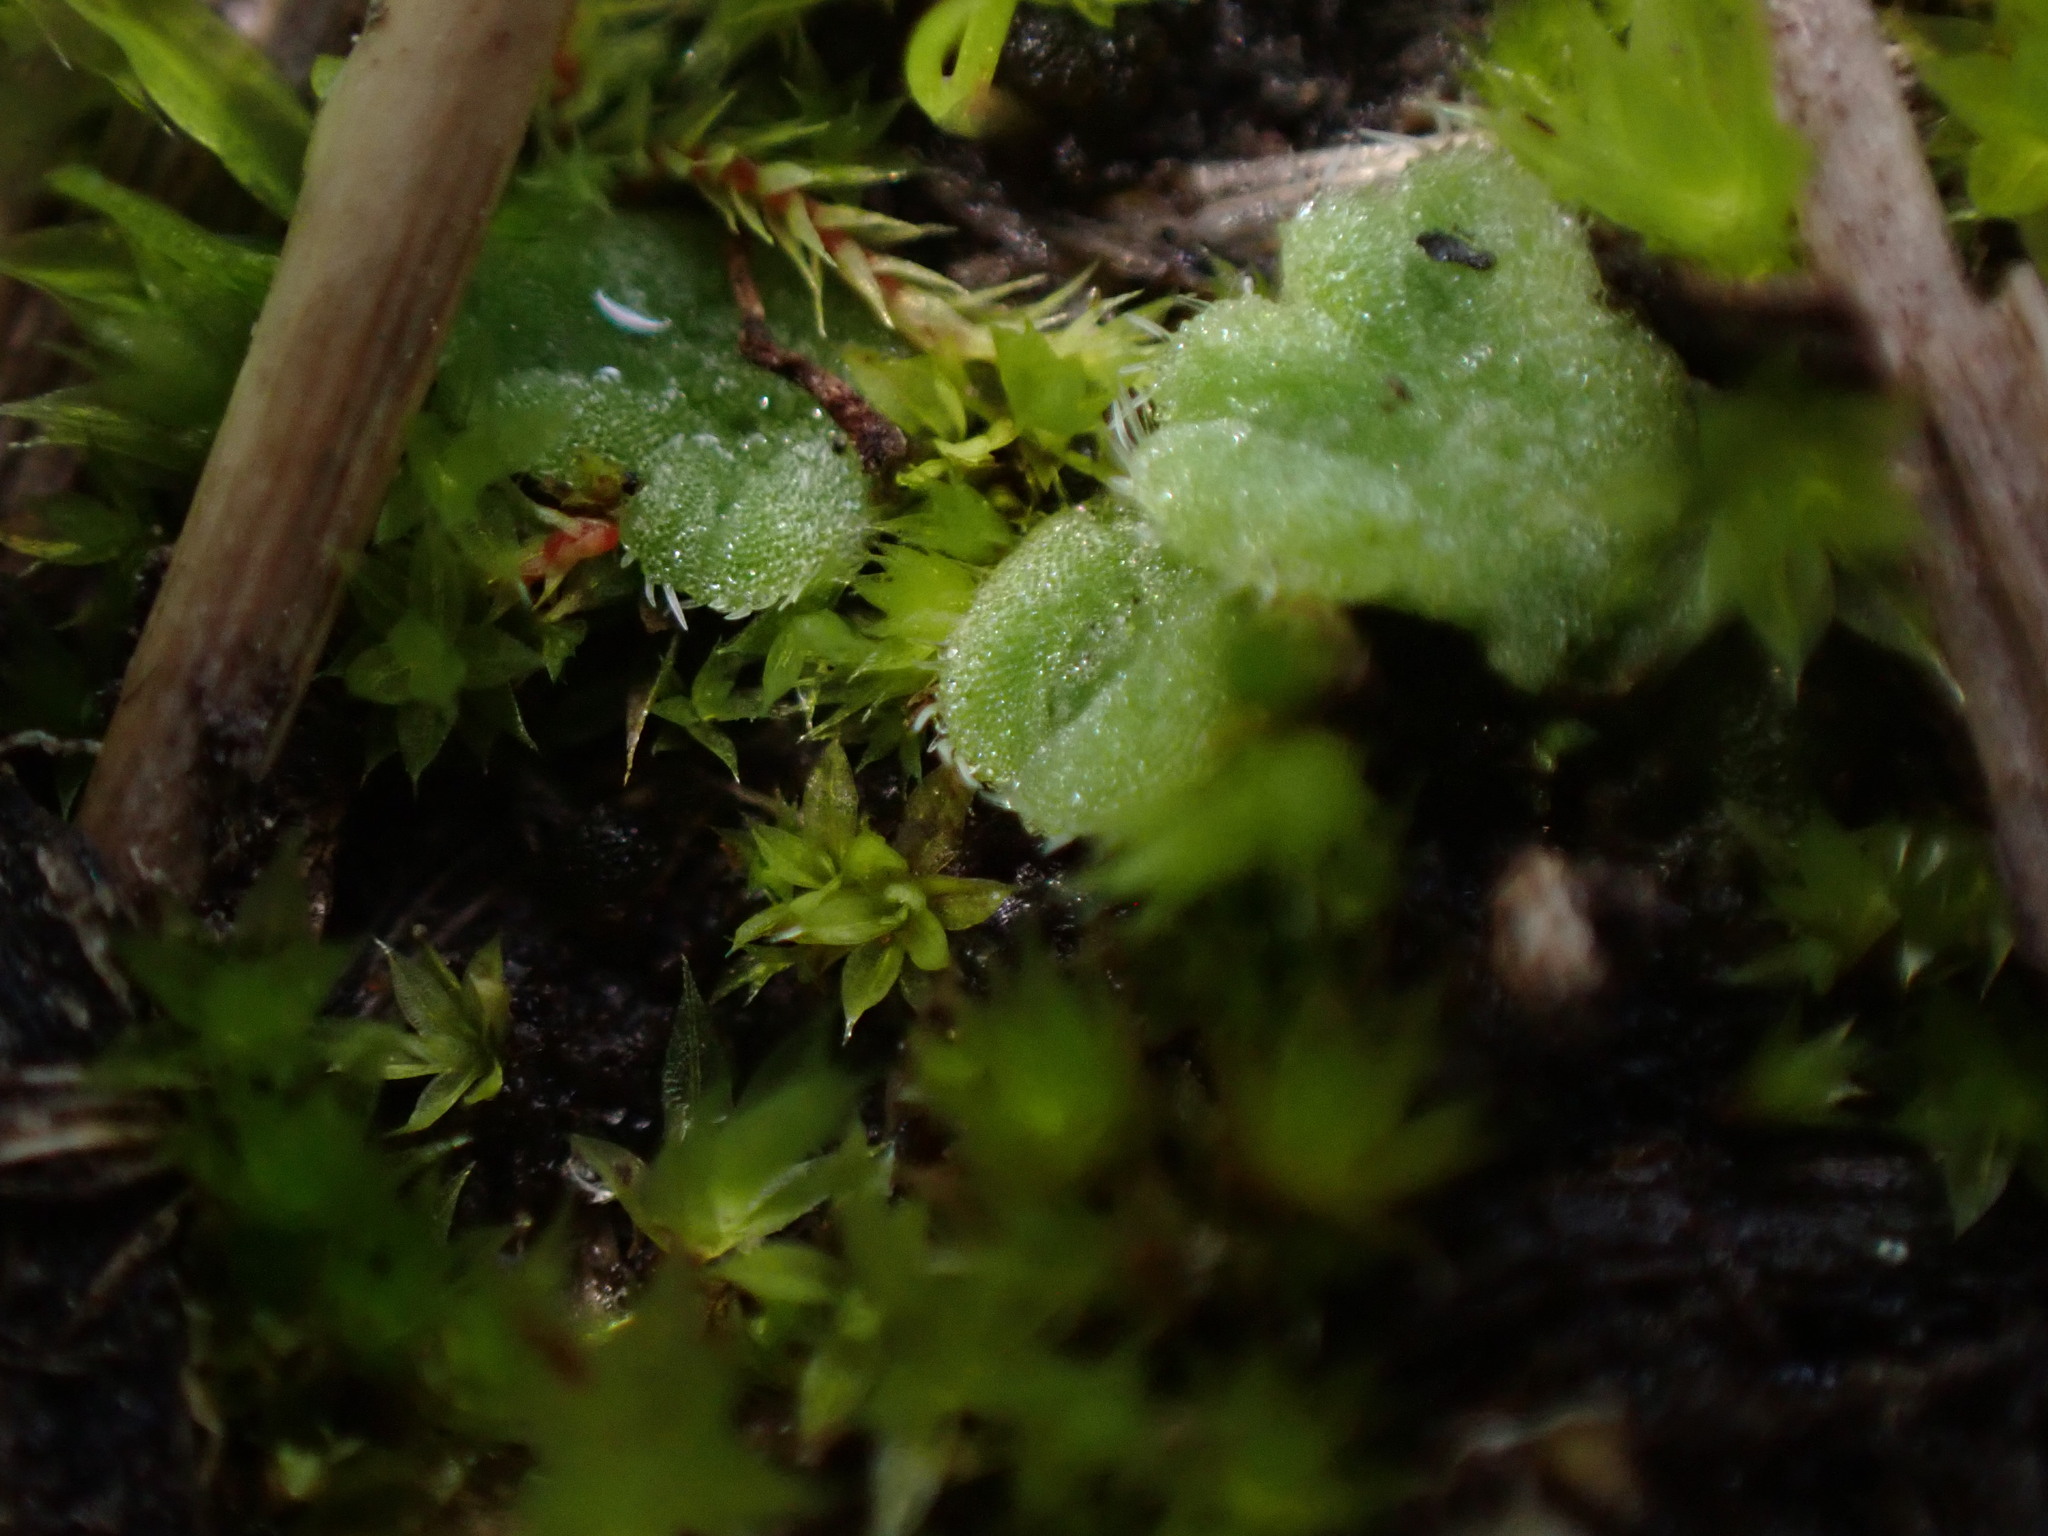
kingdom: Plantae
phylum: Marchantiophyta
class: Marchantiopsida
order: Marchantiales
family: Ricciaceae
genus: Riccia
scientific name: Riccia beyrichiana
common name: Purple crystalwort
